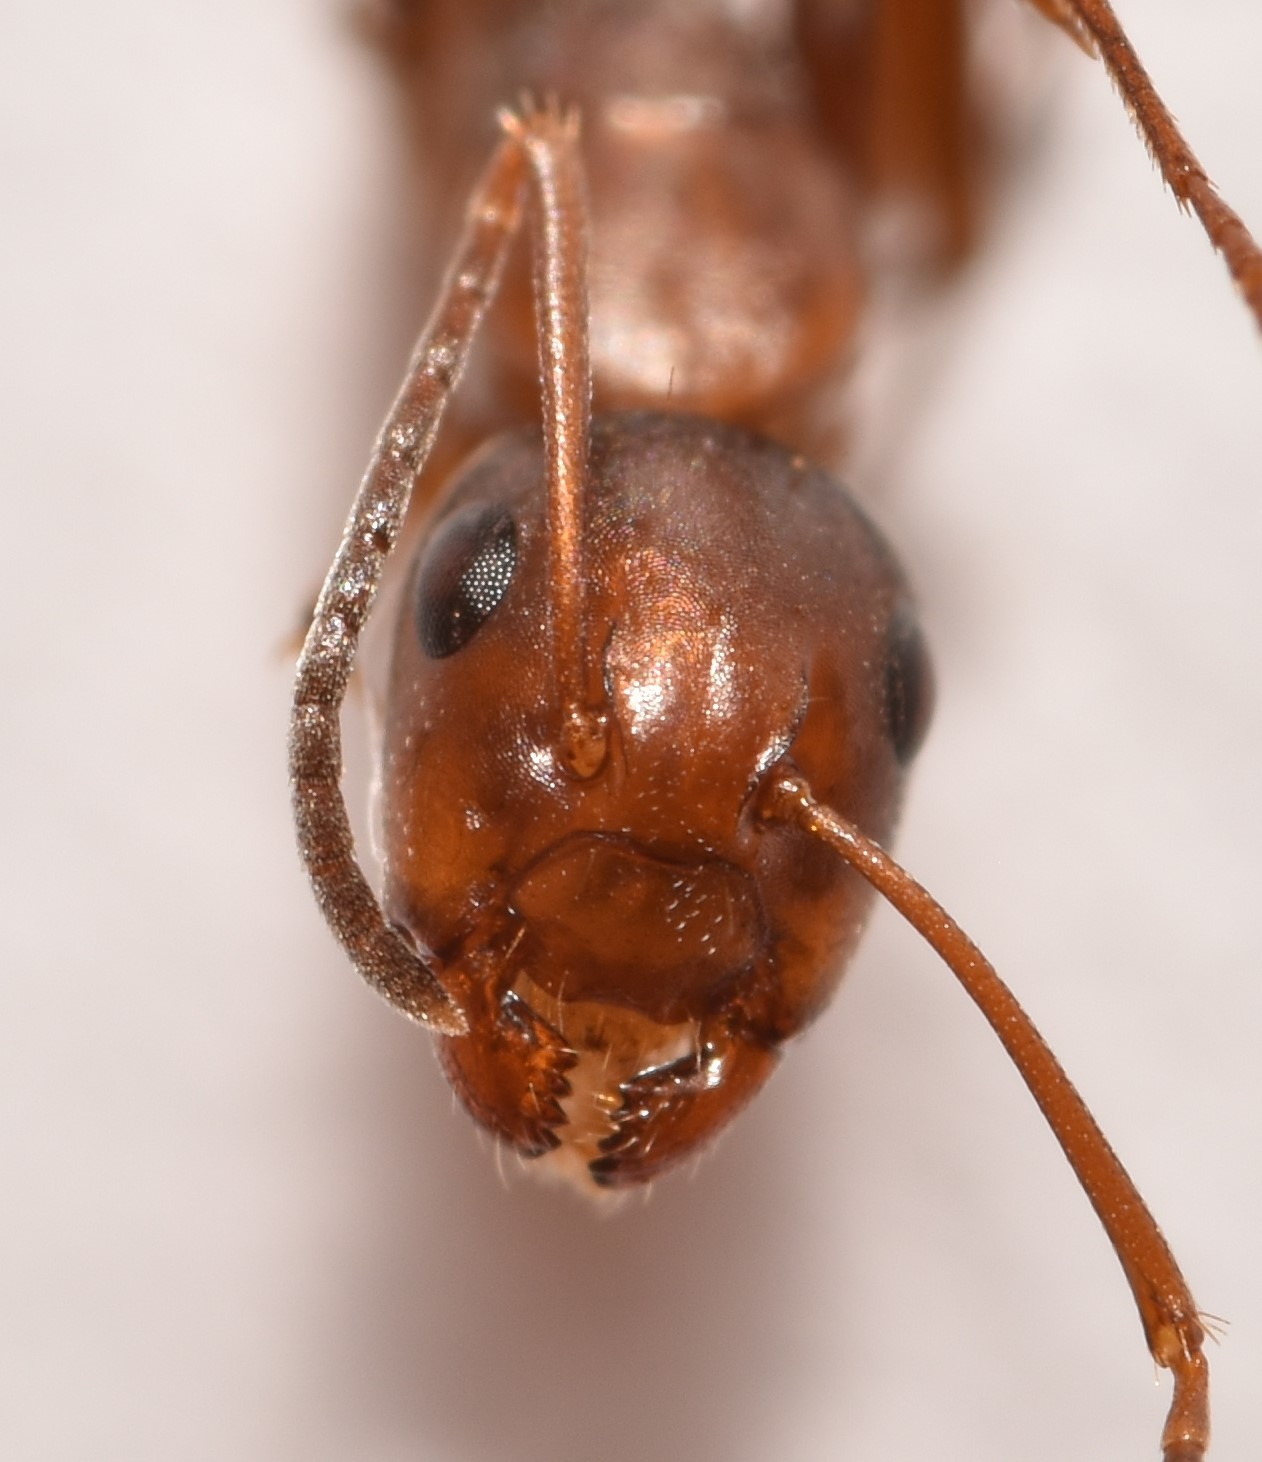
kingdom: Animalia
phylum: Arthropoda
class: Insecta
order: Hymenoptera
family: Formicidae
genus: Camponotus
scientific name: Camponotus snellingi
